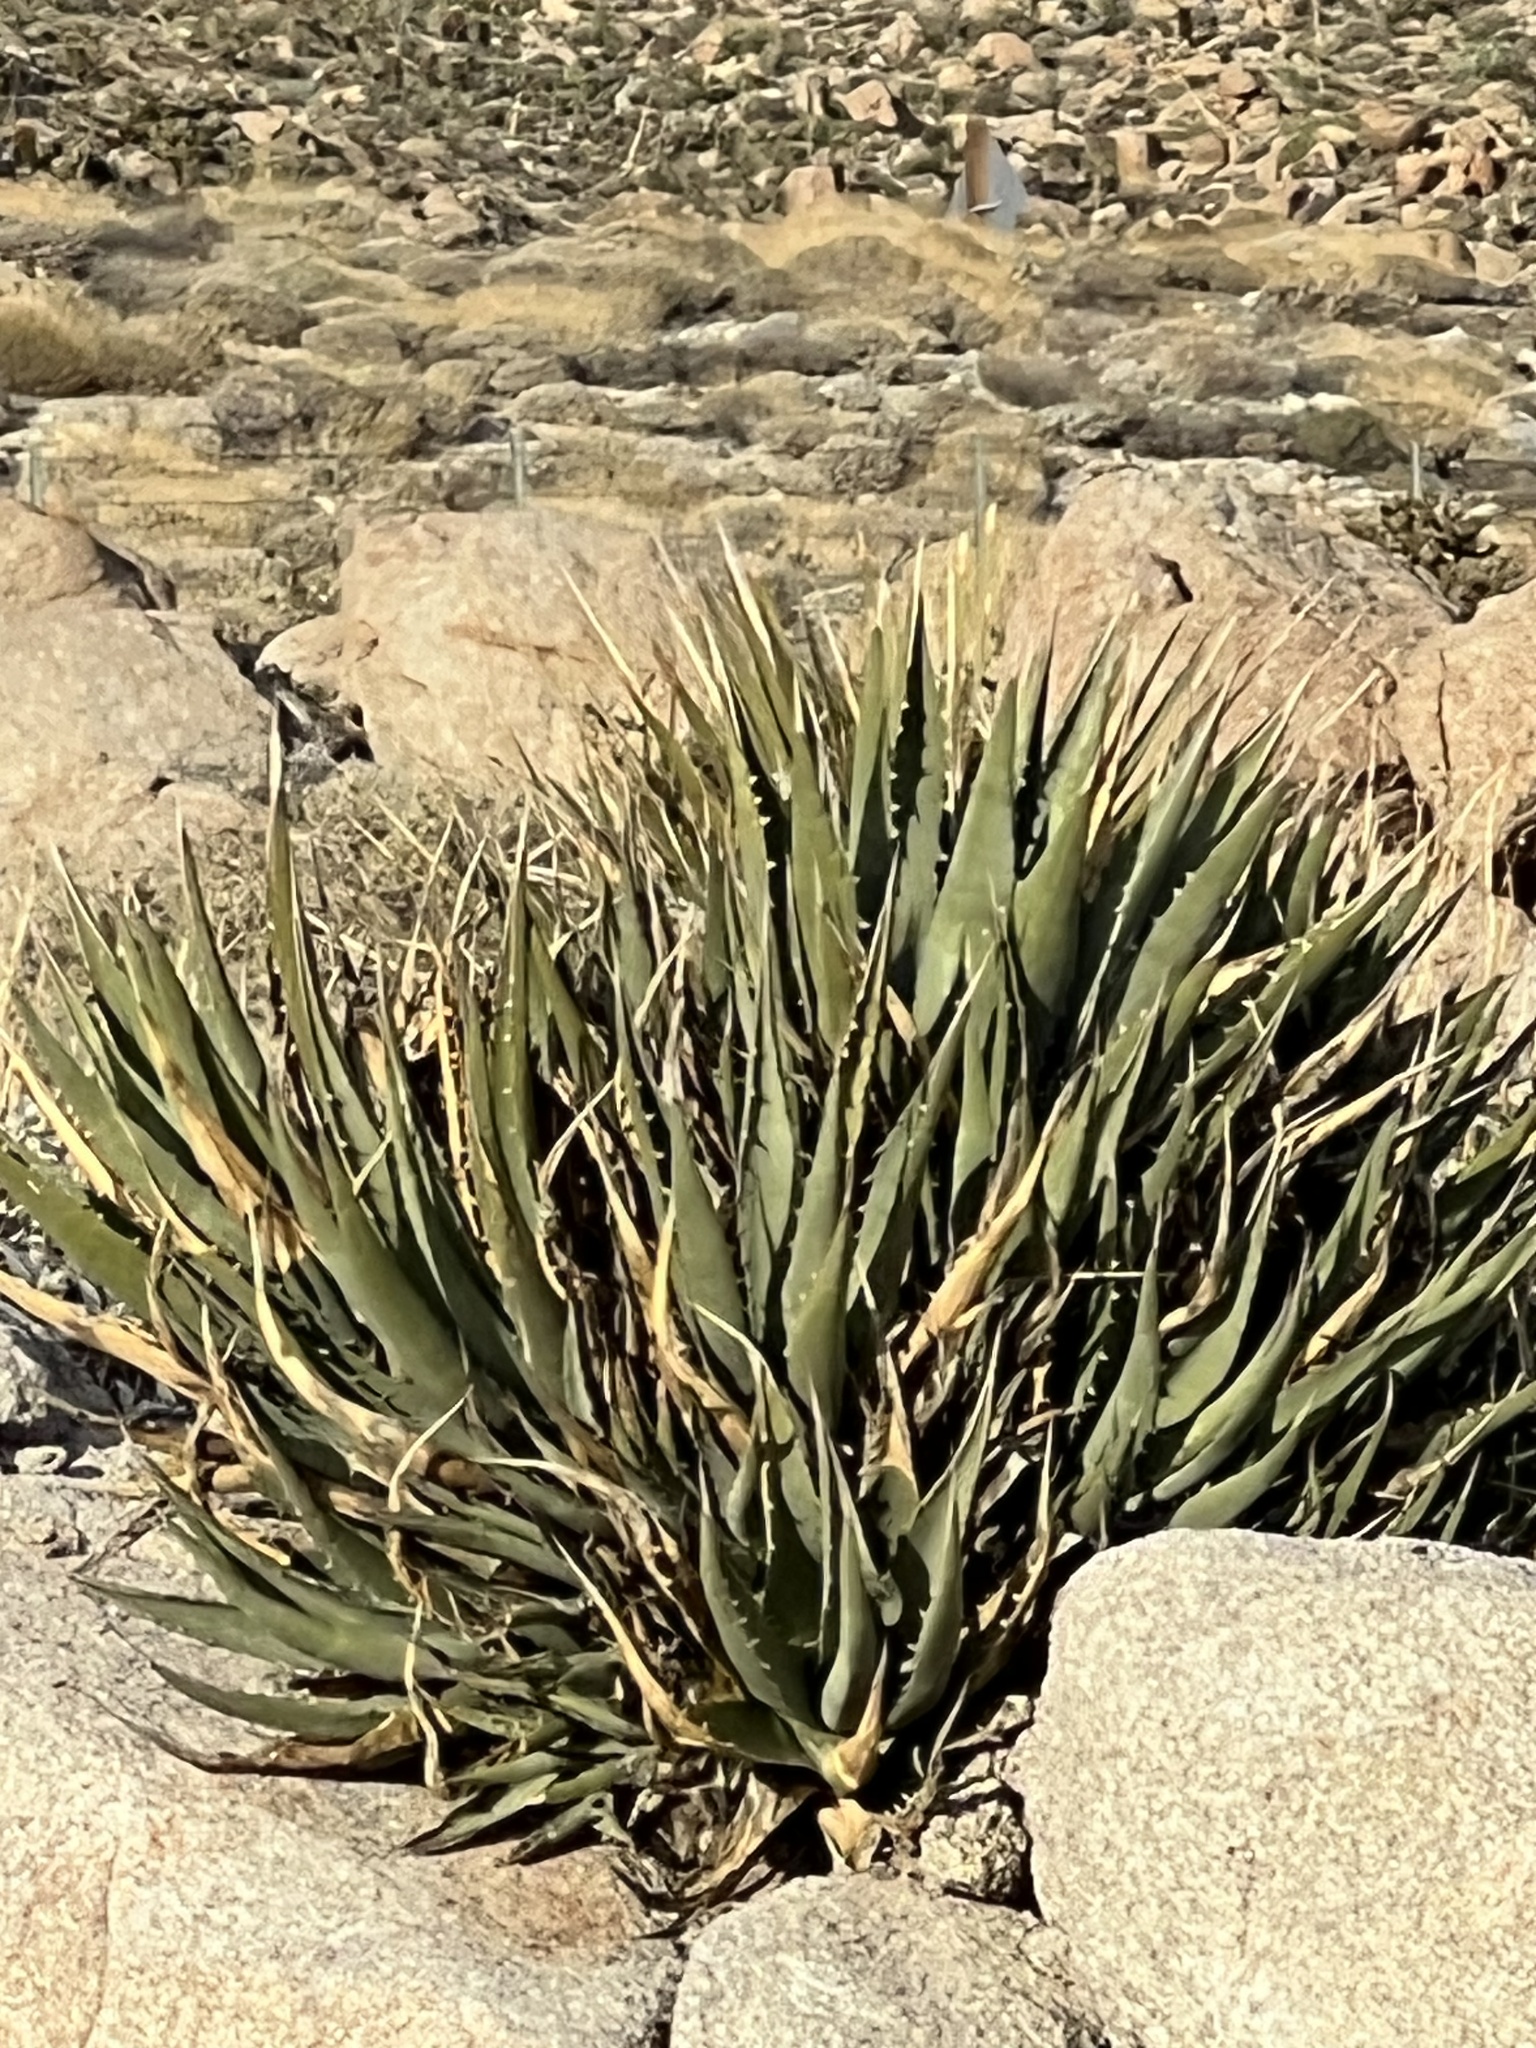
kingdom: Plantae
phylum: Tracheophyta
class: Liliopsida
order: Asparagales
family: Asparagaceae
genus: Agave
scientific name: Agave deserti
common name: Desert agave
